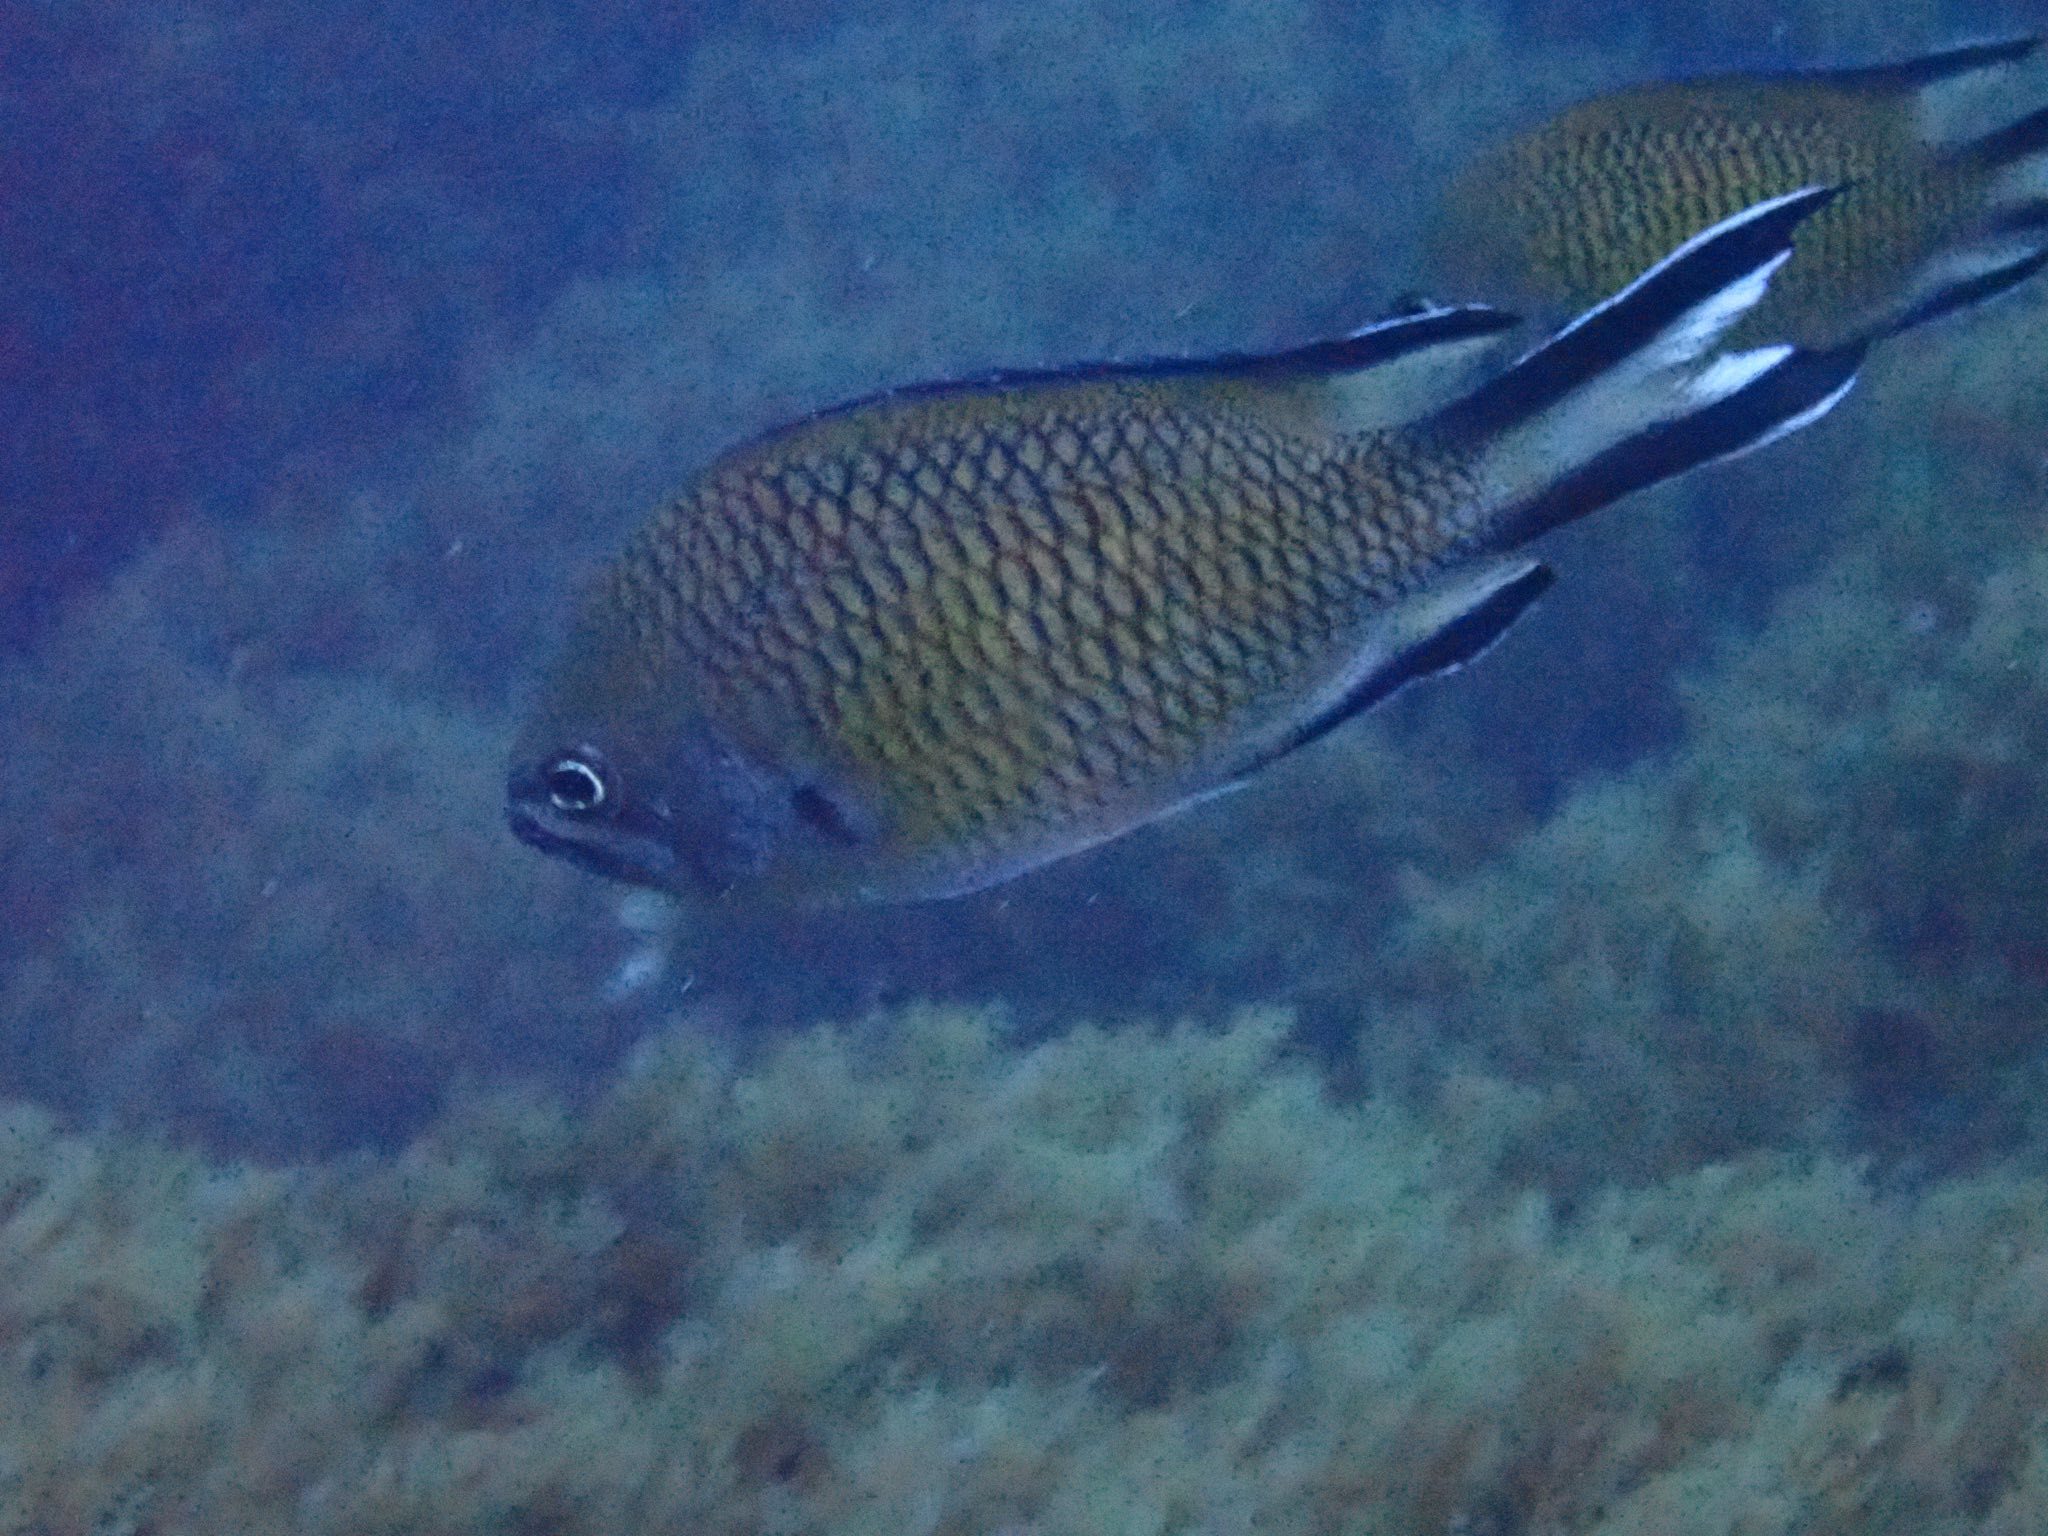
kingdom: Animalia
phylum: Chordata
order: Perciformes
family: Pomacentridae
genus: Chromis
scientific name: Chromis limbata
